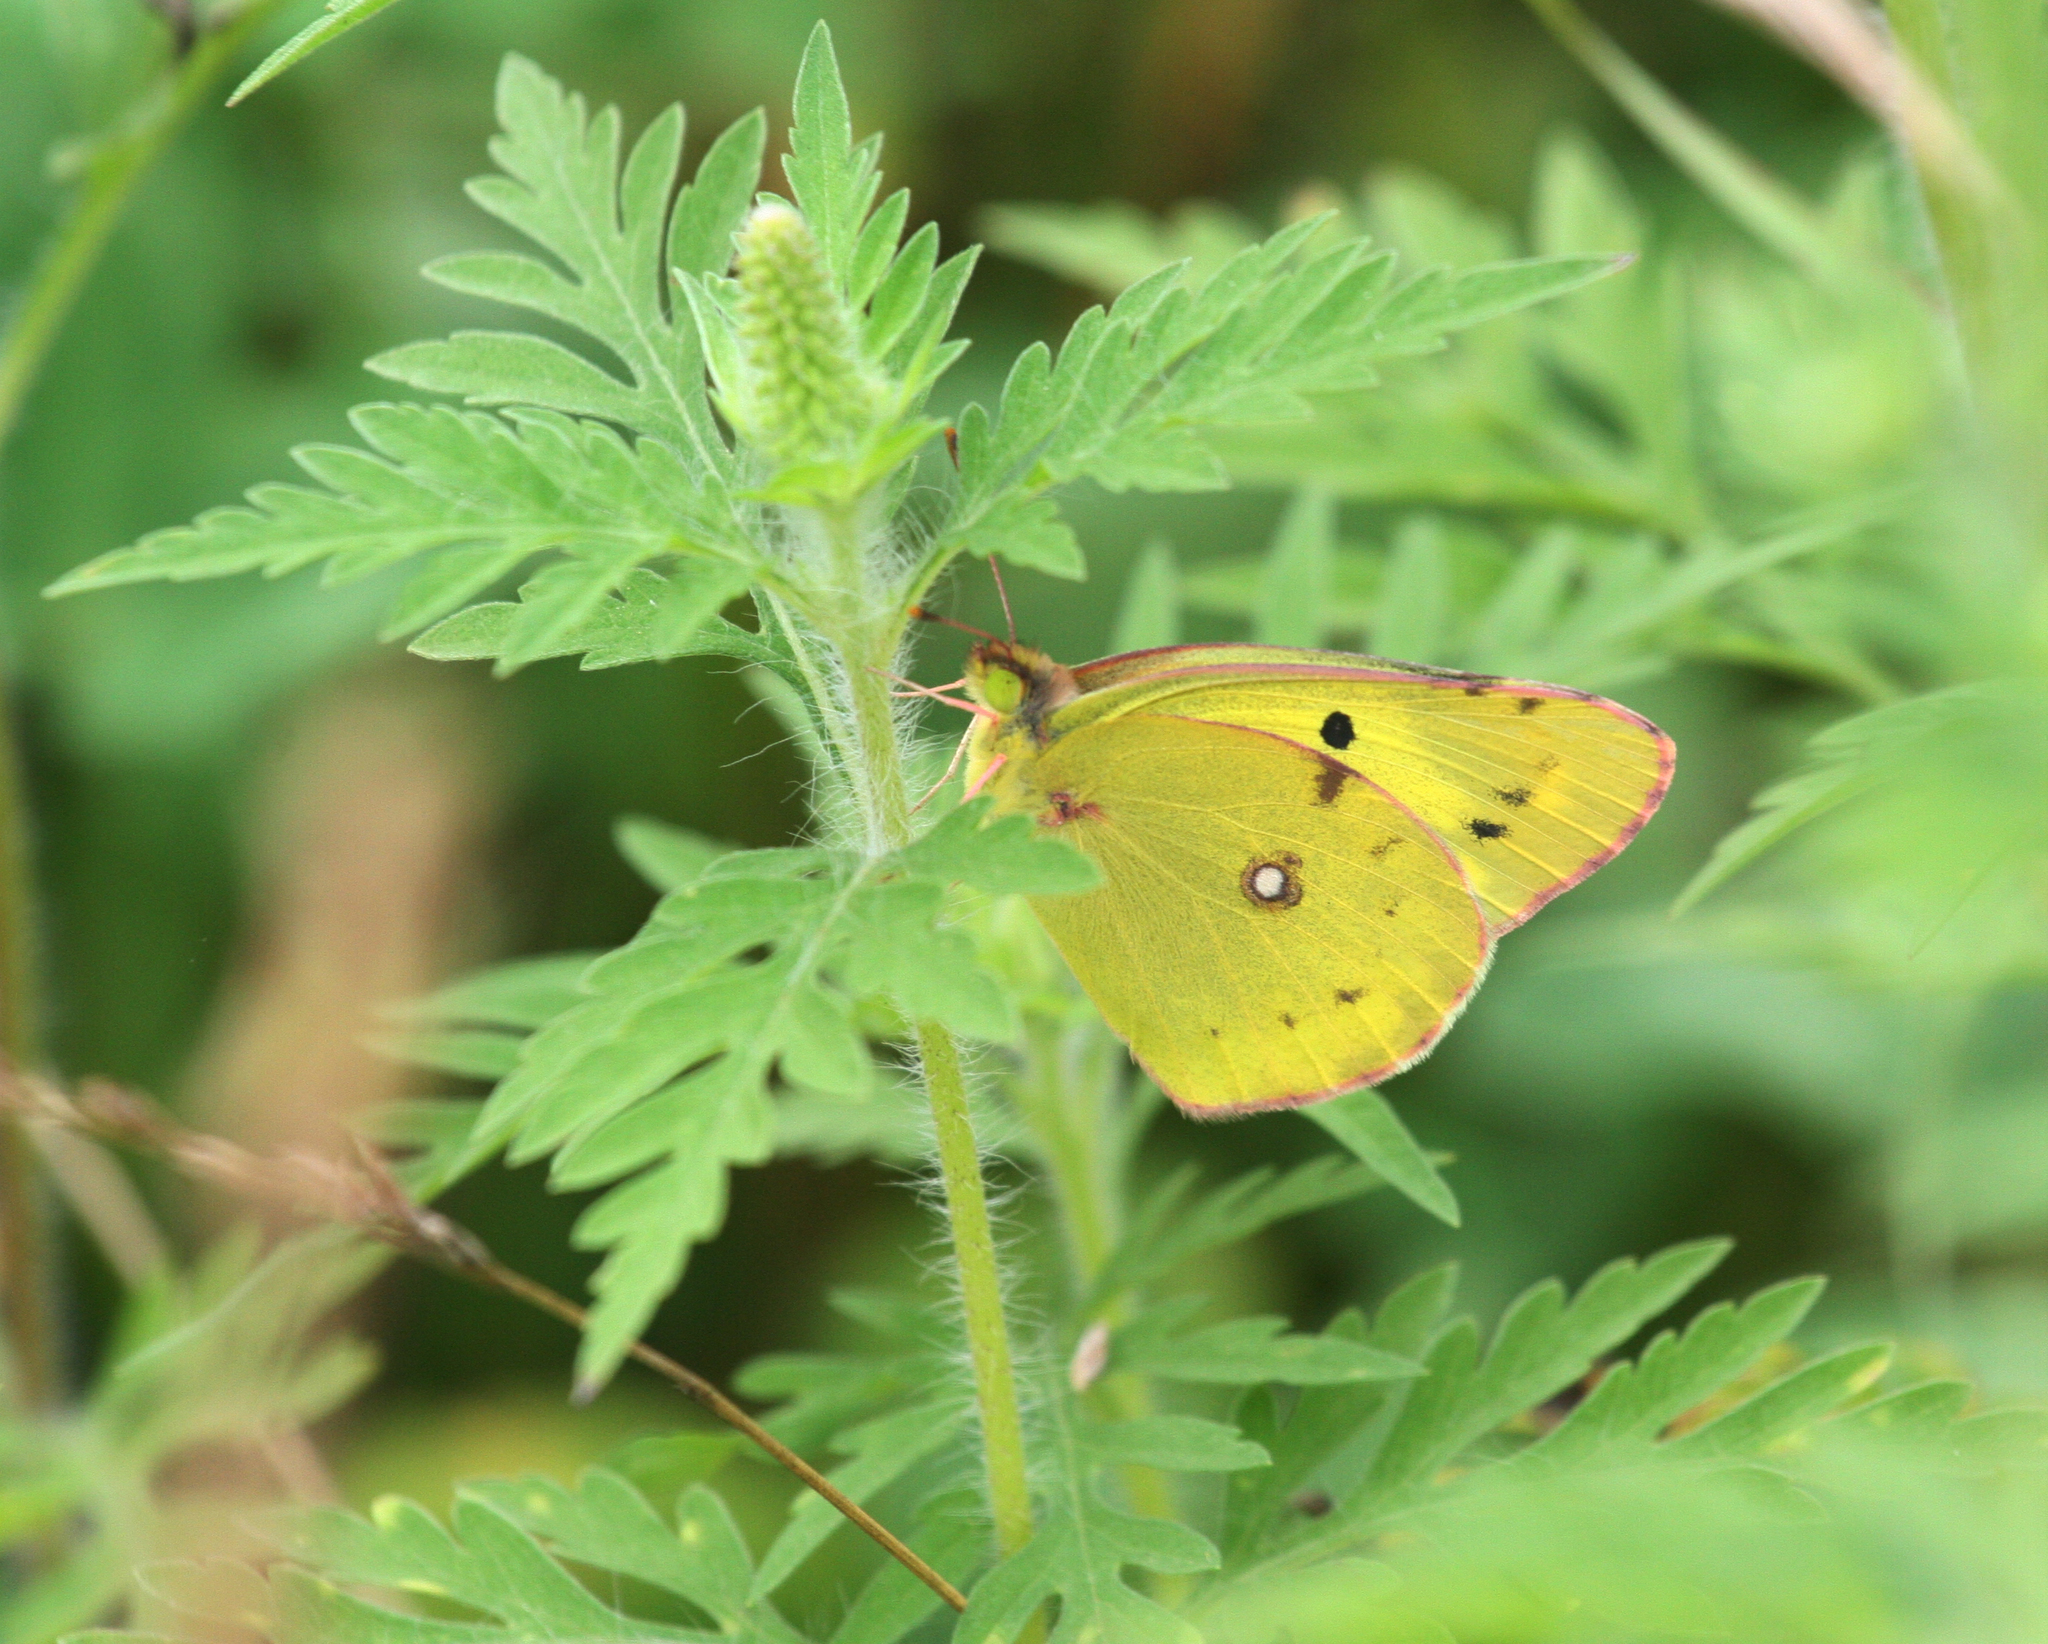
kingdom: Animalia
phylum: Arthropoda
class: Insecta
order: Lepidoptera
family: Pieridae
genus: Colias
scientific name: Colias poliographus
